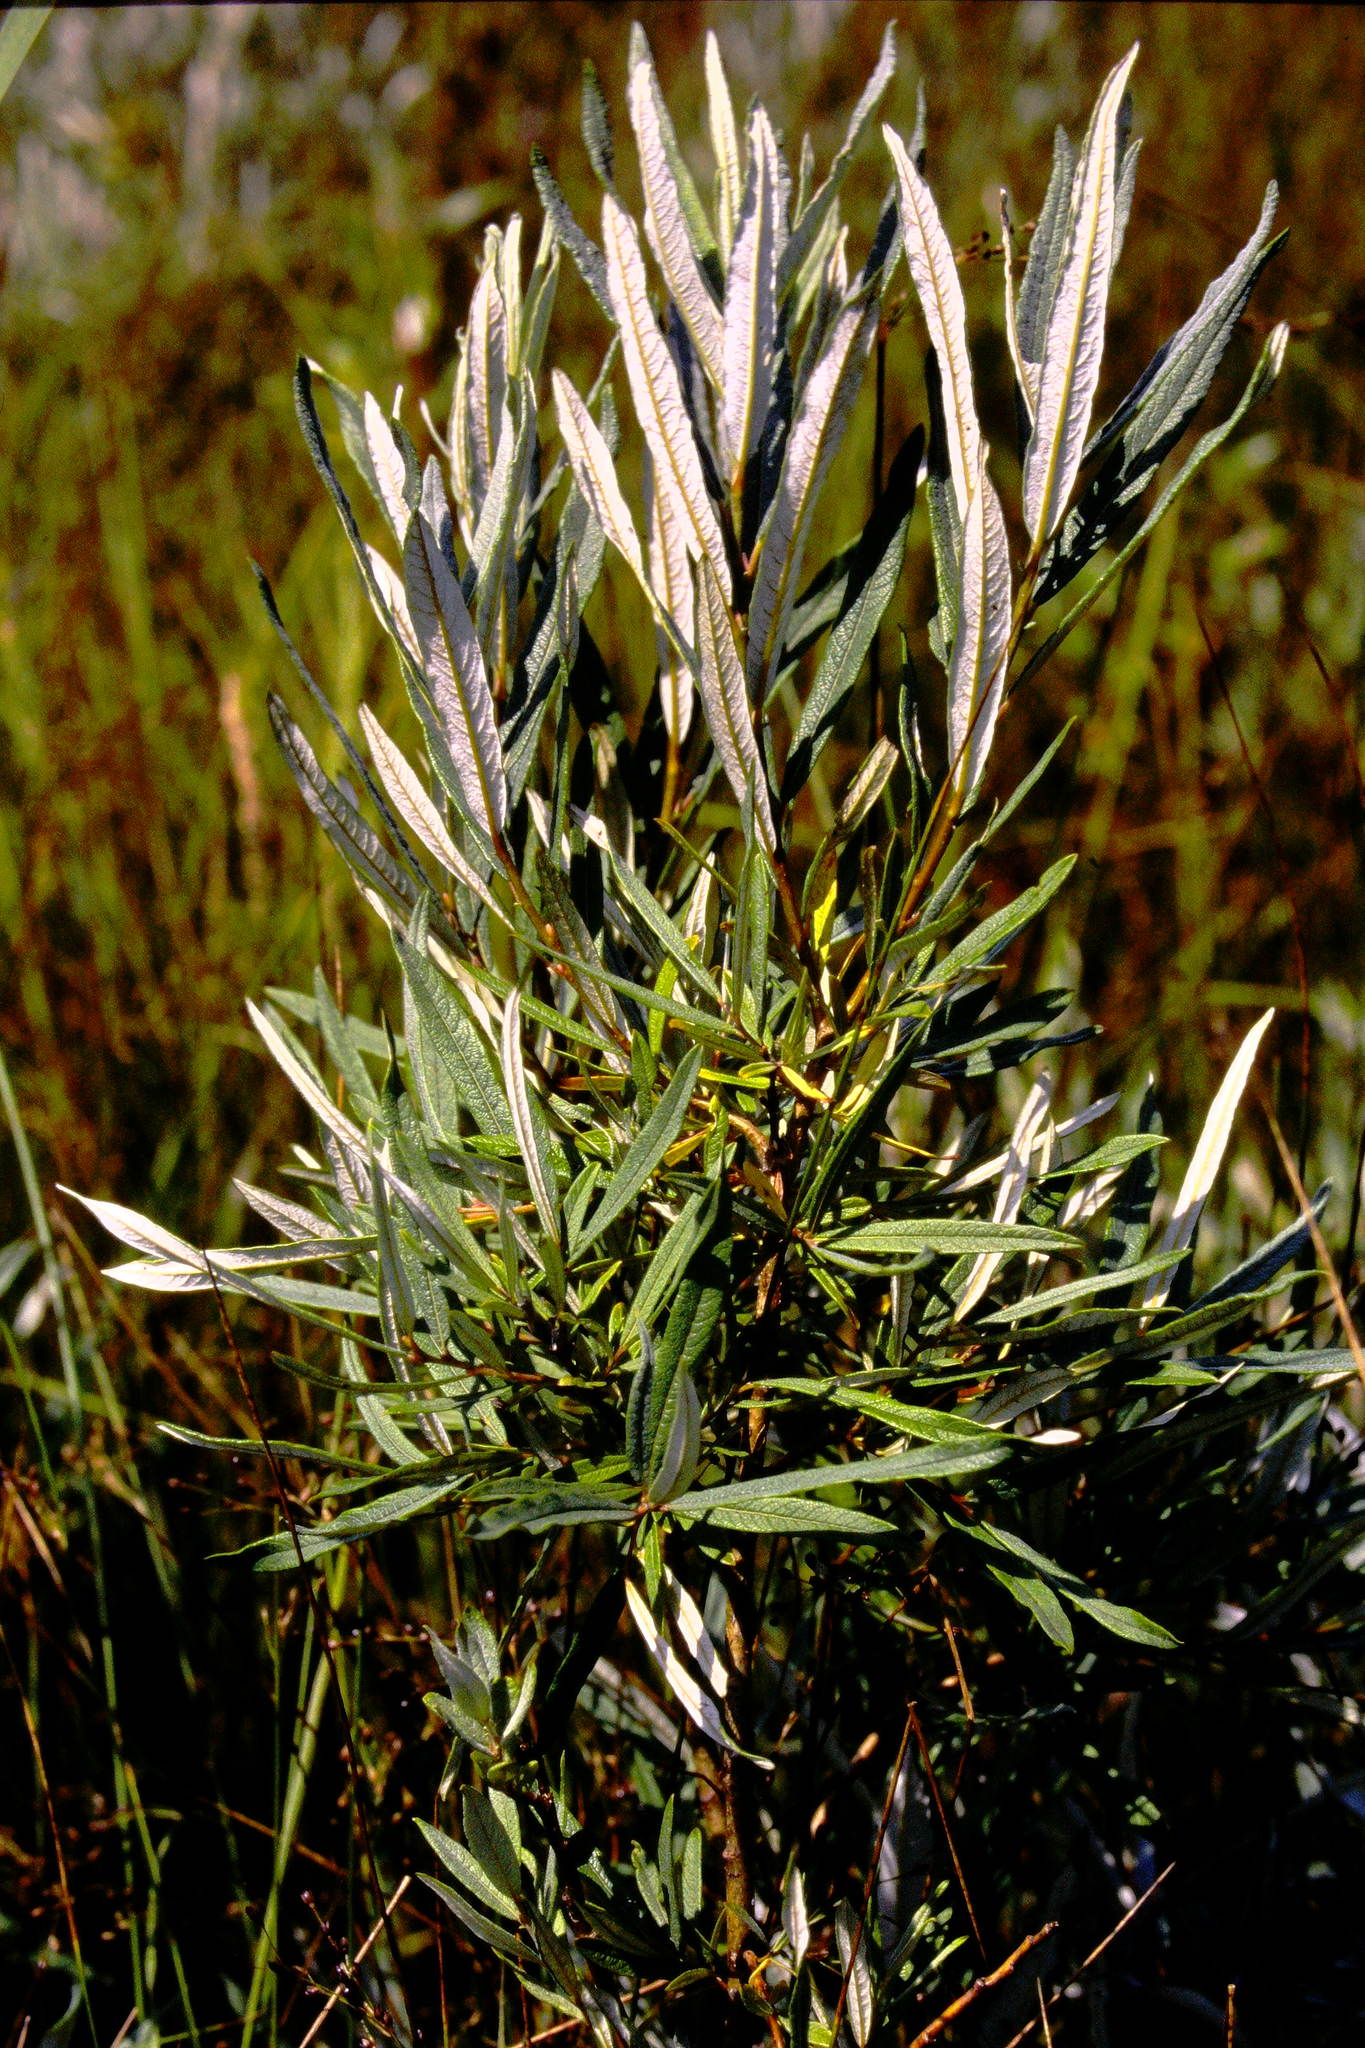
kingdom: Plantae
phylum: Tracheophyta
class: Magnoliopsida
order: Malpighiales
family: Salicaceae
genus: Salix
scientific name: Salix candida
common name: Hoary willow
